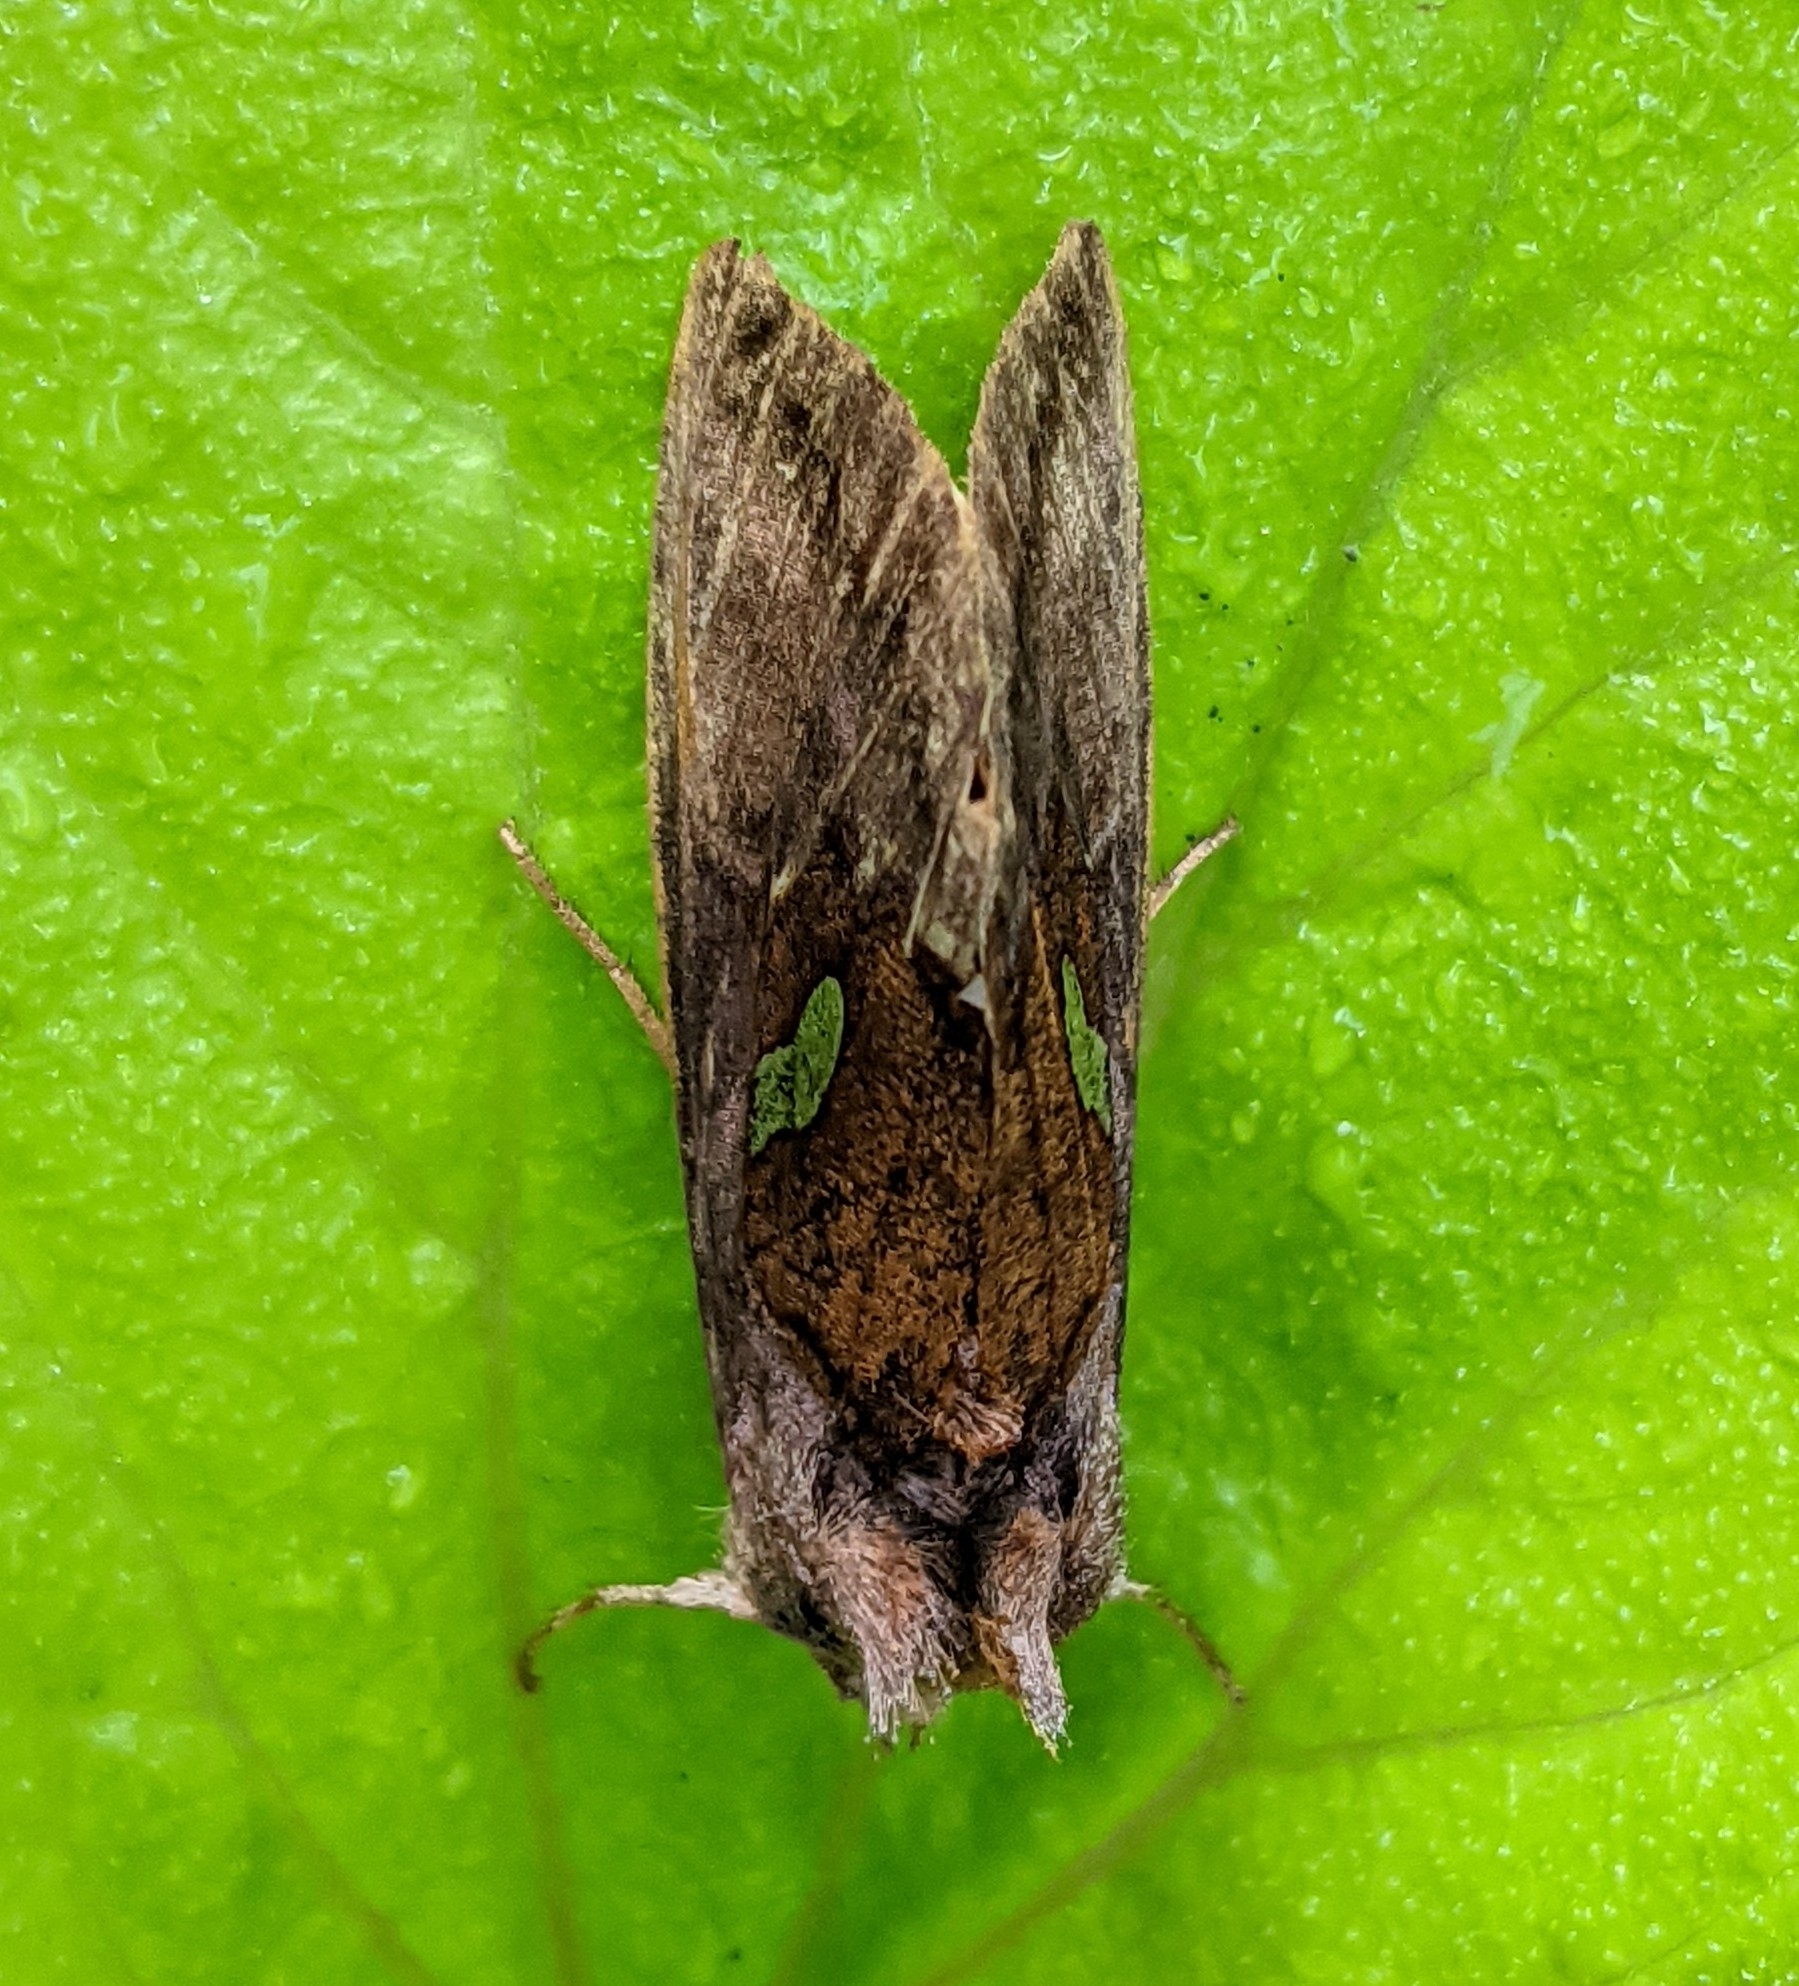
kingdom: Animalia
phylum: Arthropoda
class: Insecta
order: Lepidoptera
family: Noctuidae
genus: Autographa
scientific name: Autographa excelsa
